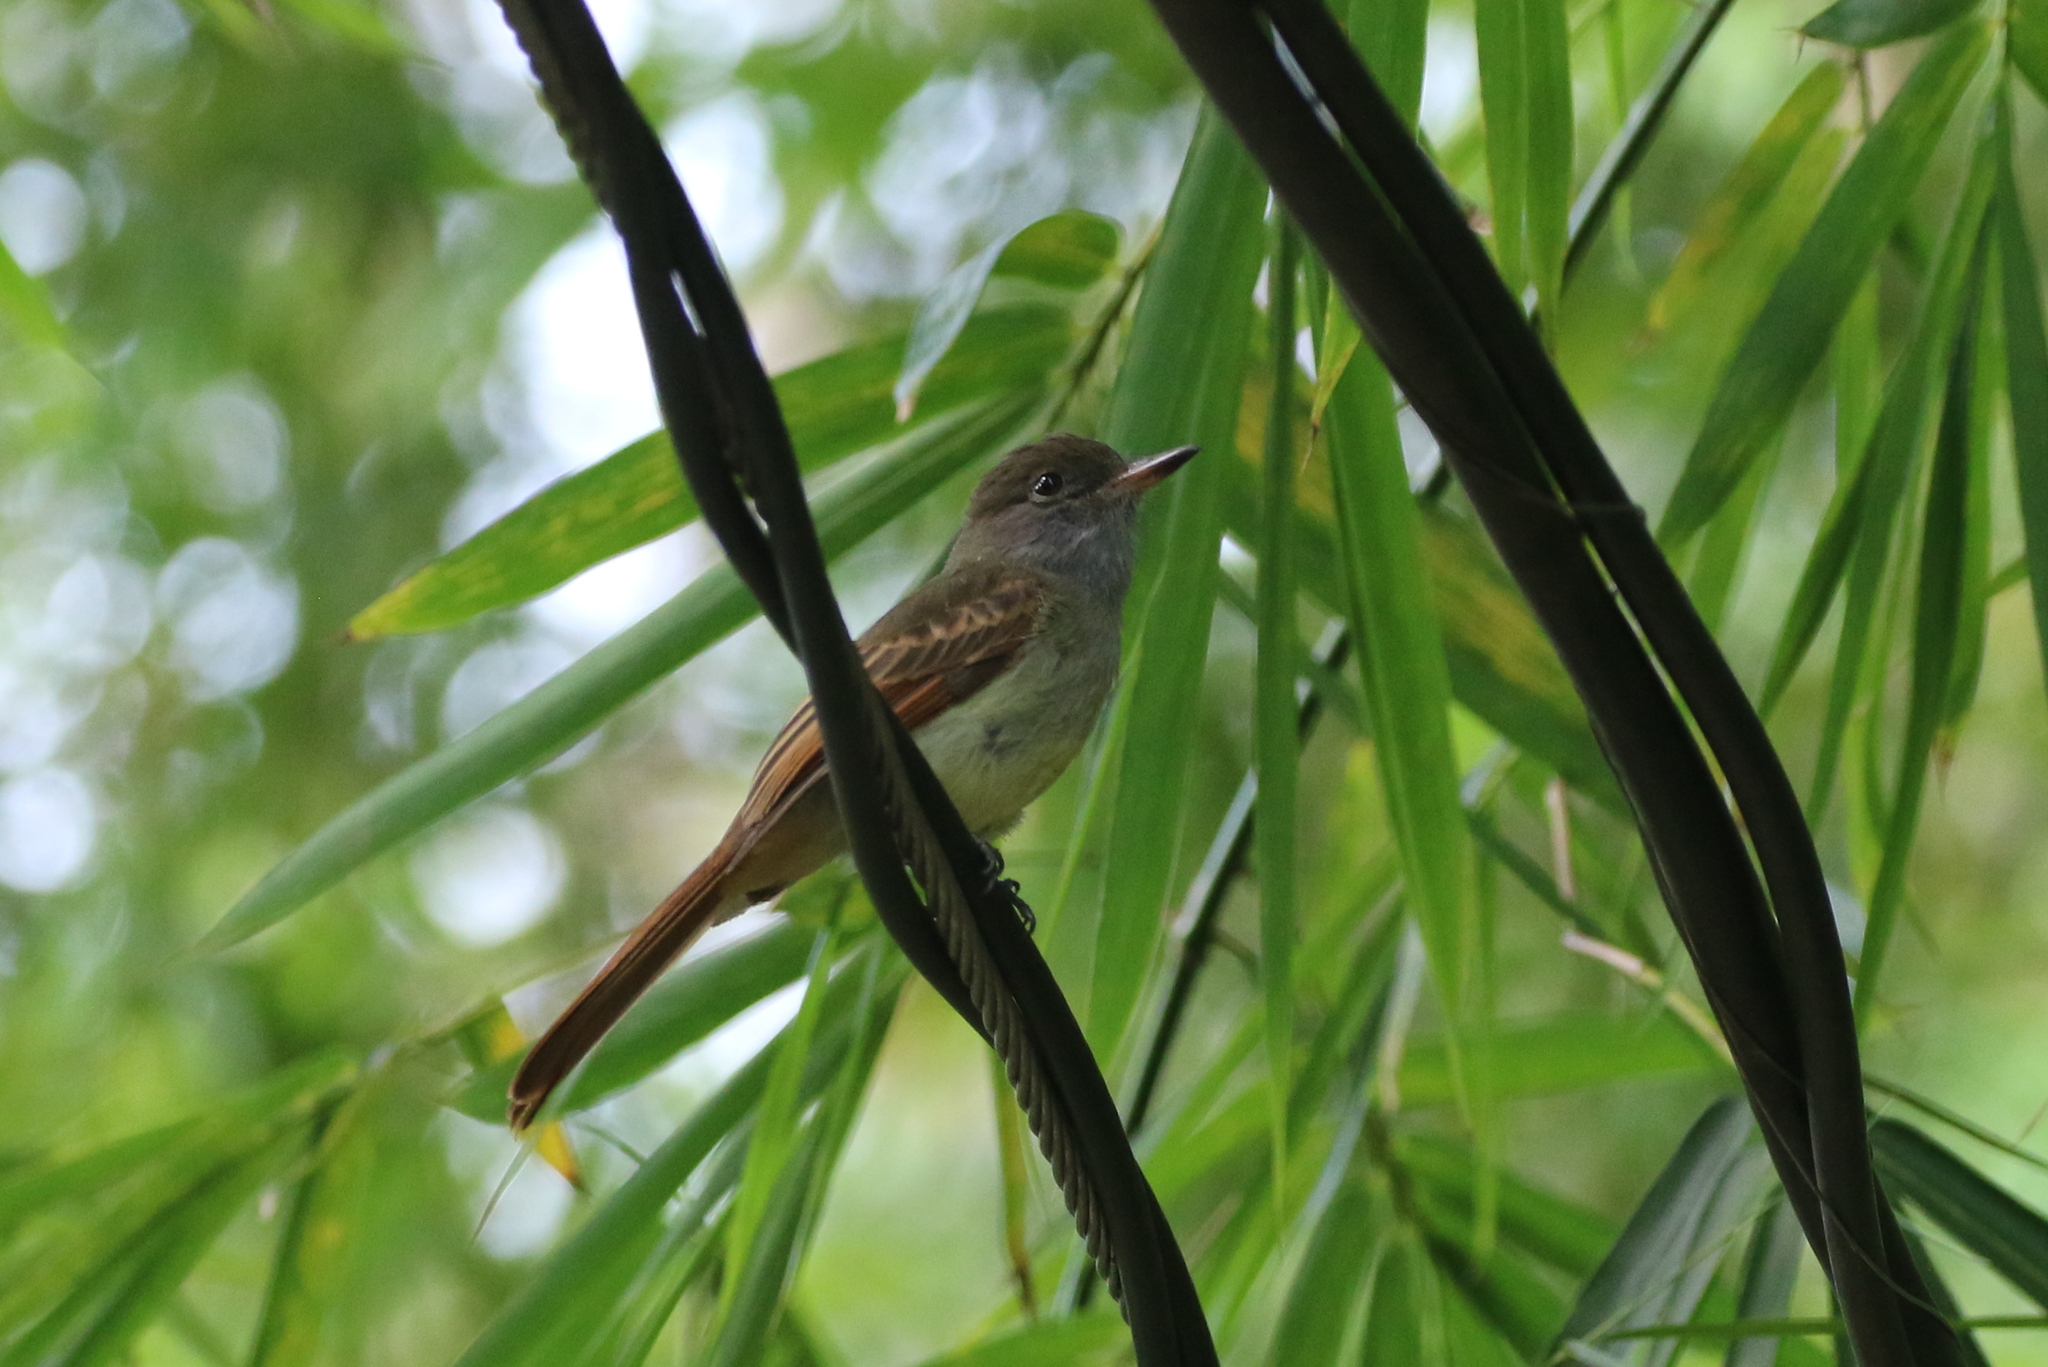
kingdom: Animalia
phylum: Chordata
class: Aves
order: Passeriformes
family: Tyrannidae
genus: Myiarchus
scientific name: Myiarchus validus
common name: Rufous-tailed flycatcher
